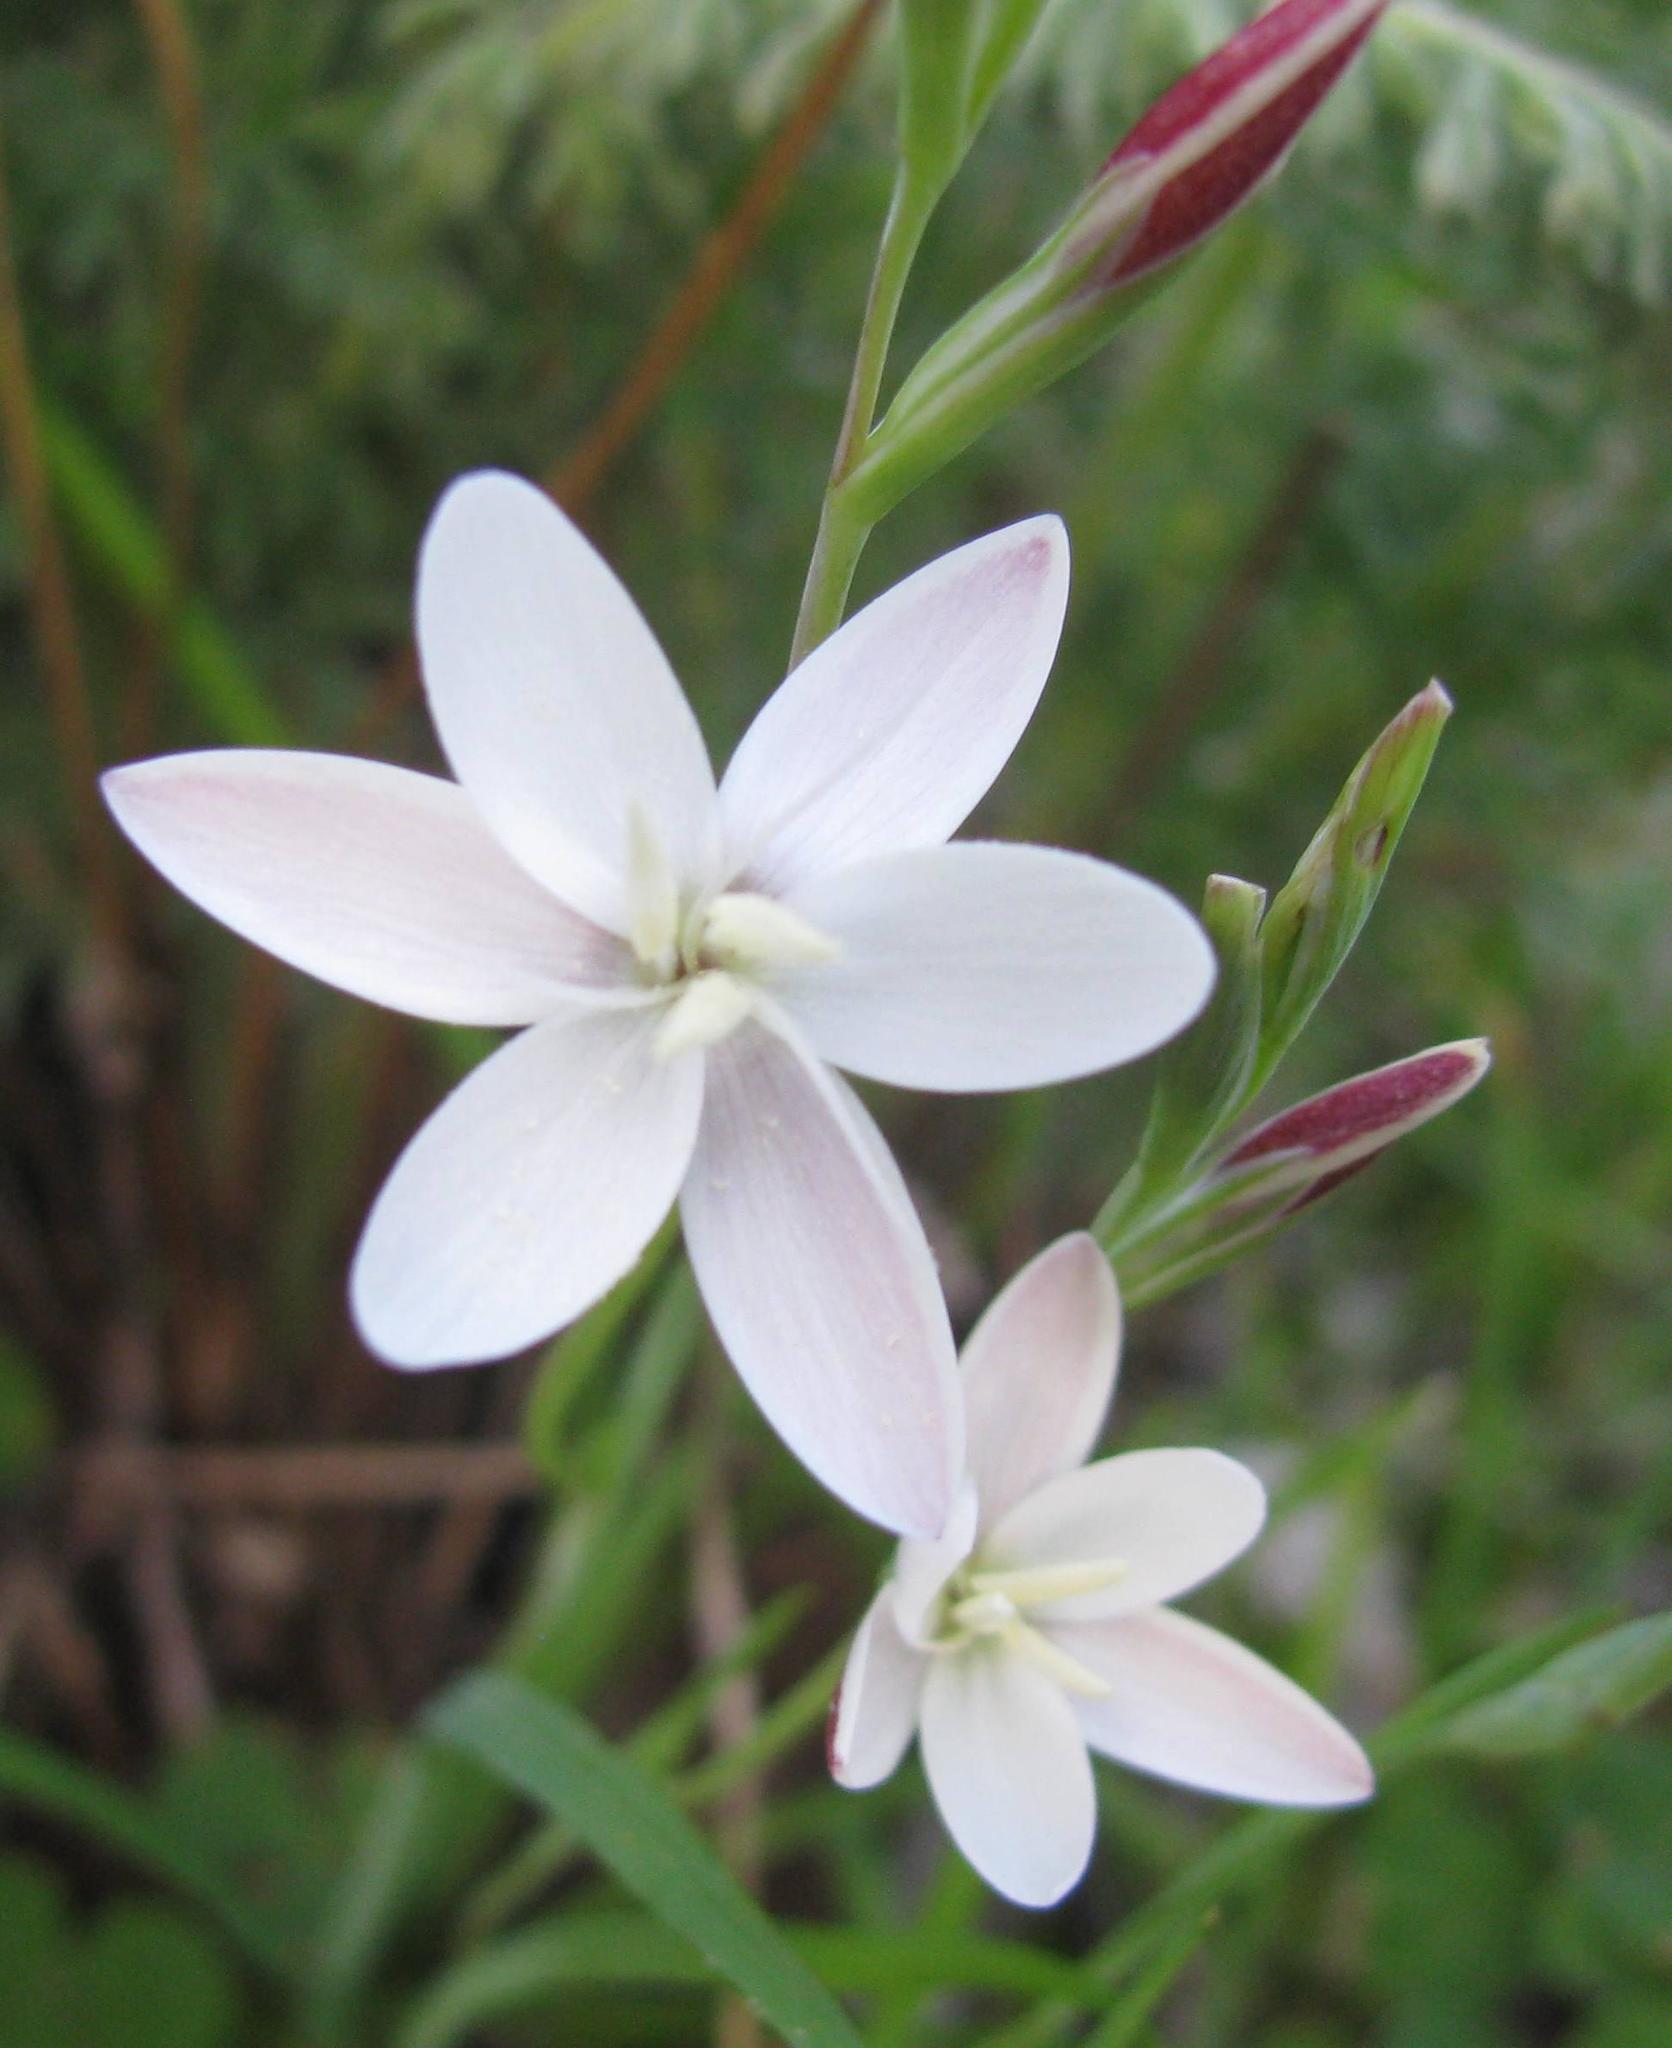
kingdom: Plantae
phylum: Tracheophyta
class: Liliopsida
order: Asparagales
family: Iridaceae
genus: Hesperantha
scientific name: Hesperantha falcata
